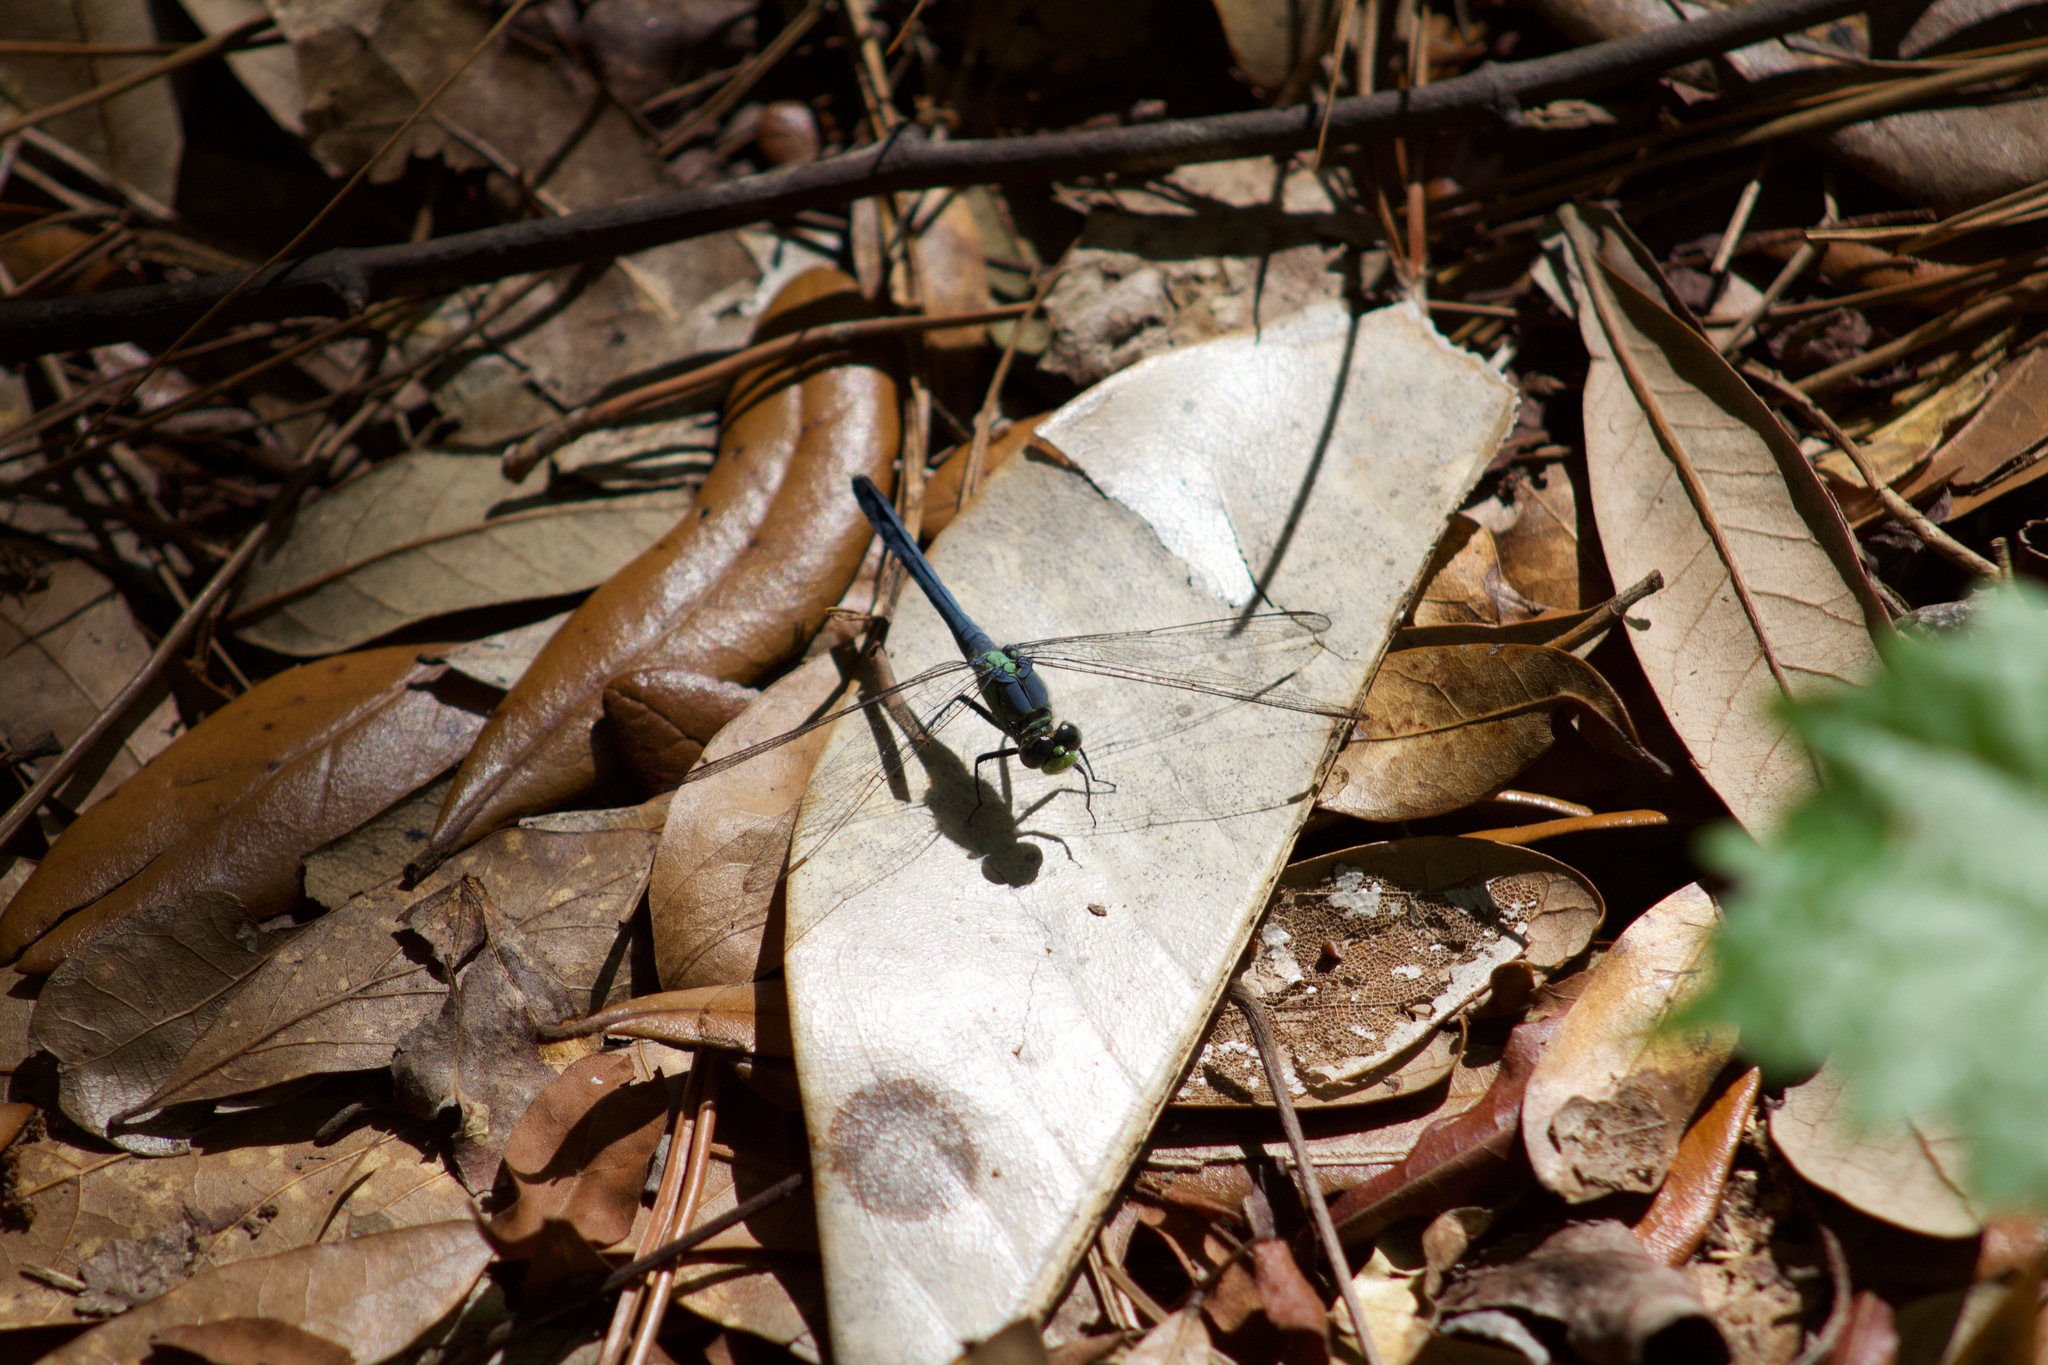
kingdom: Animalia
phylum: Arthropoda
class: Insecta
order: Odonata
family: Libellulidae
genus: Erythemis
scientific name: Erythemis simplicicollis
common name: Eastern pondhawk
